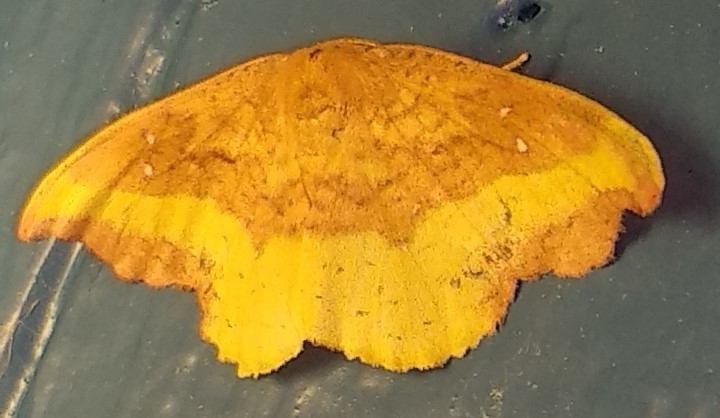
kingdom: Animalia
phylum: Arthropoda
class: Insecta
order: Lepidoptera
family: Drepanidae
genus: Oreta
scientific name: Oreta rosea
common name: Rose hooktip
